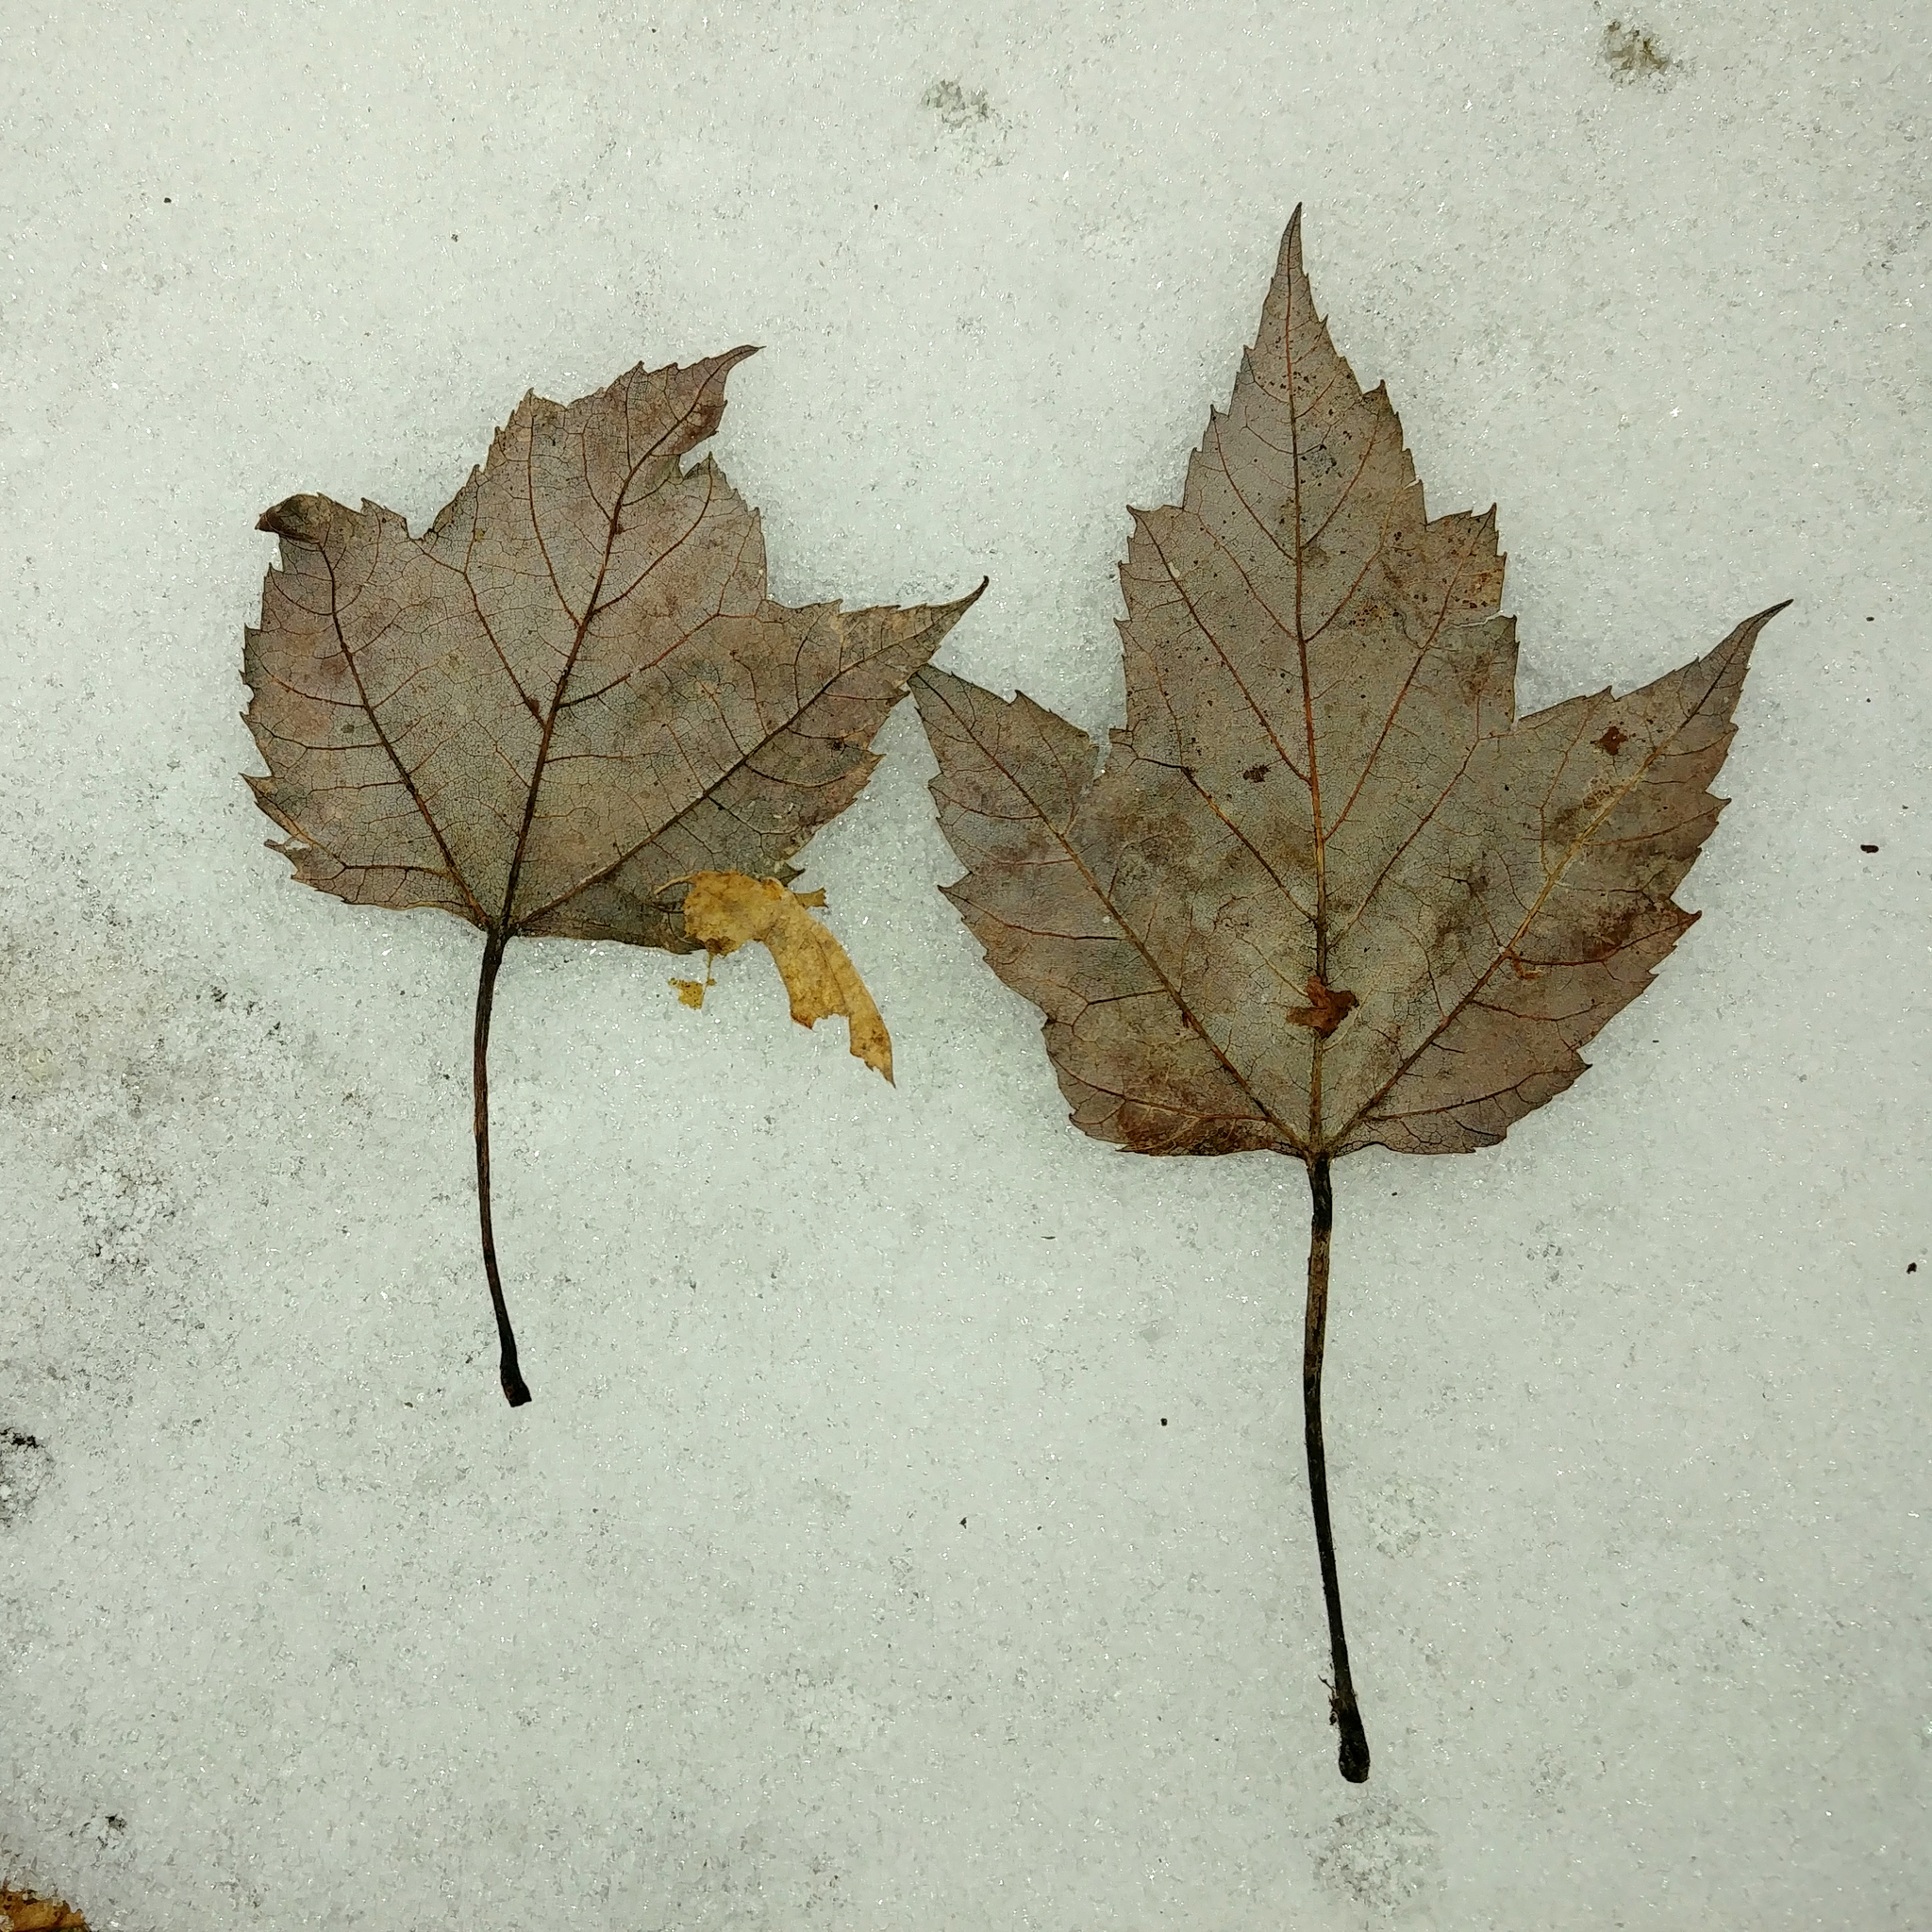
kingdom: Plantae
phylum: Tracheophyta
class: Magnoliopsida
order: Sapindales
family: Sapindaceae
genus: Acer
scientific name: Acer rubrum
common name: Red maple
